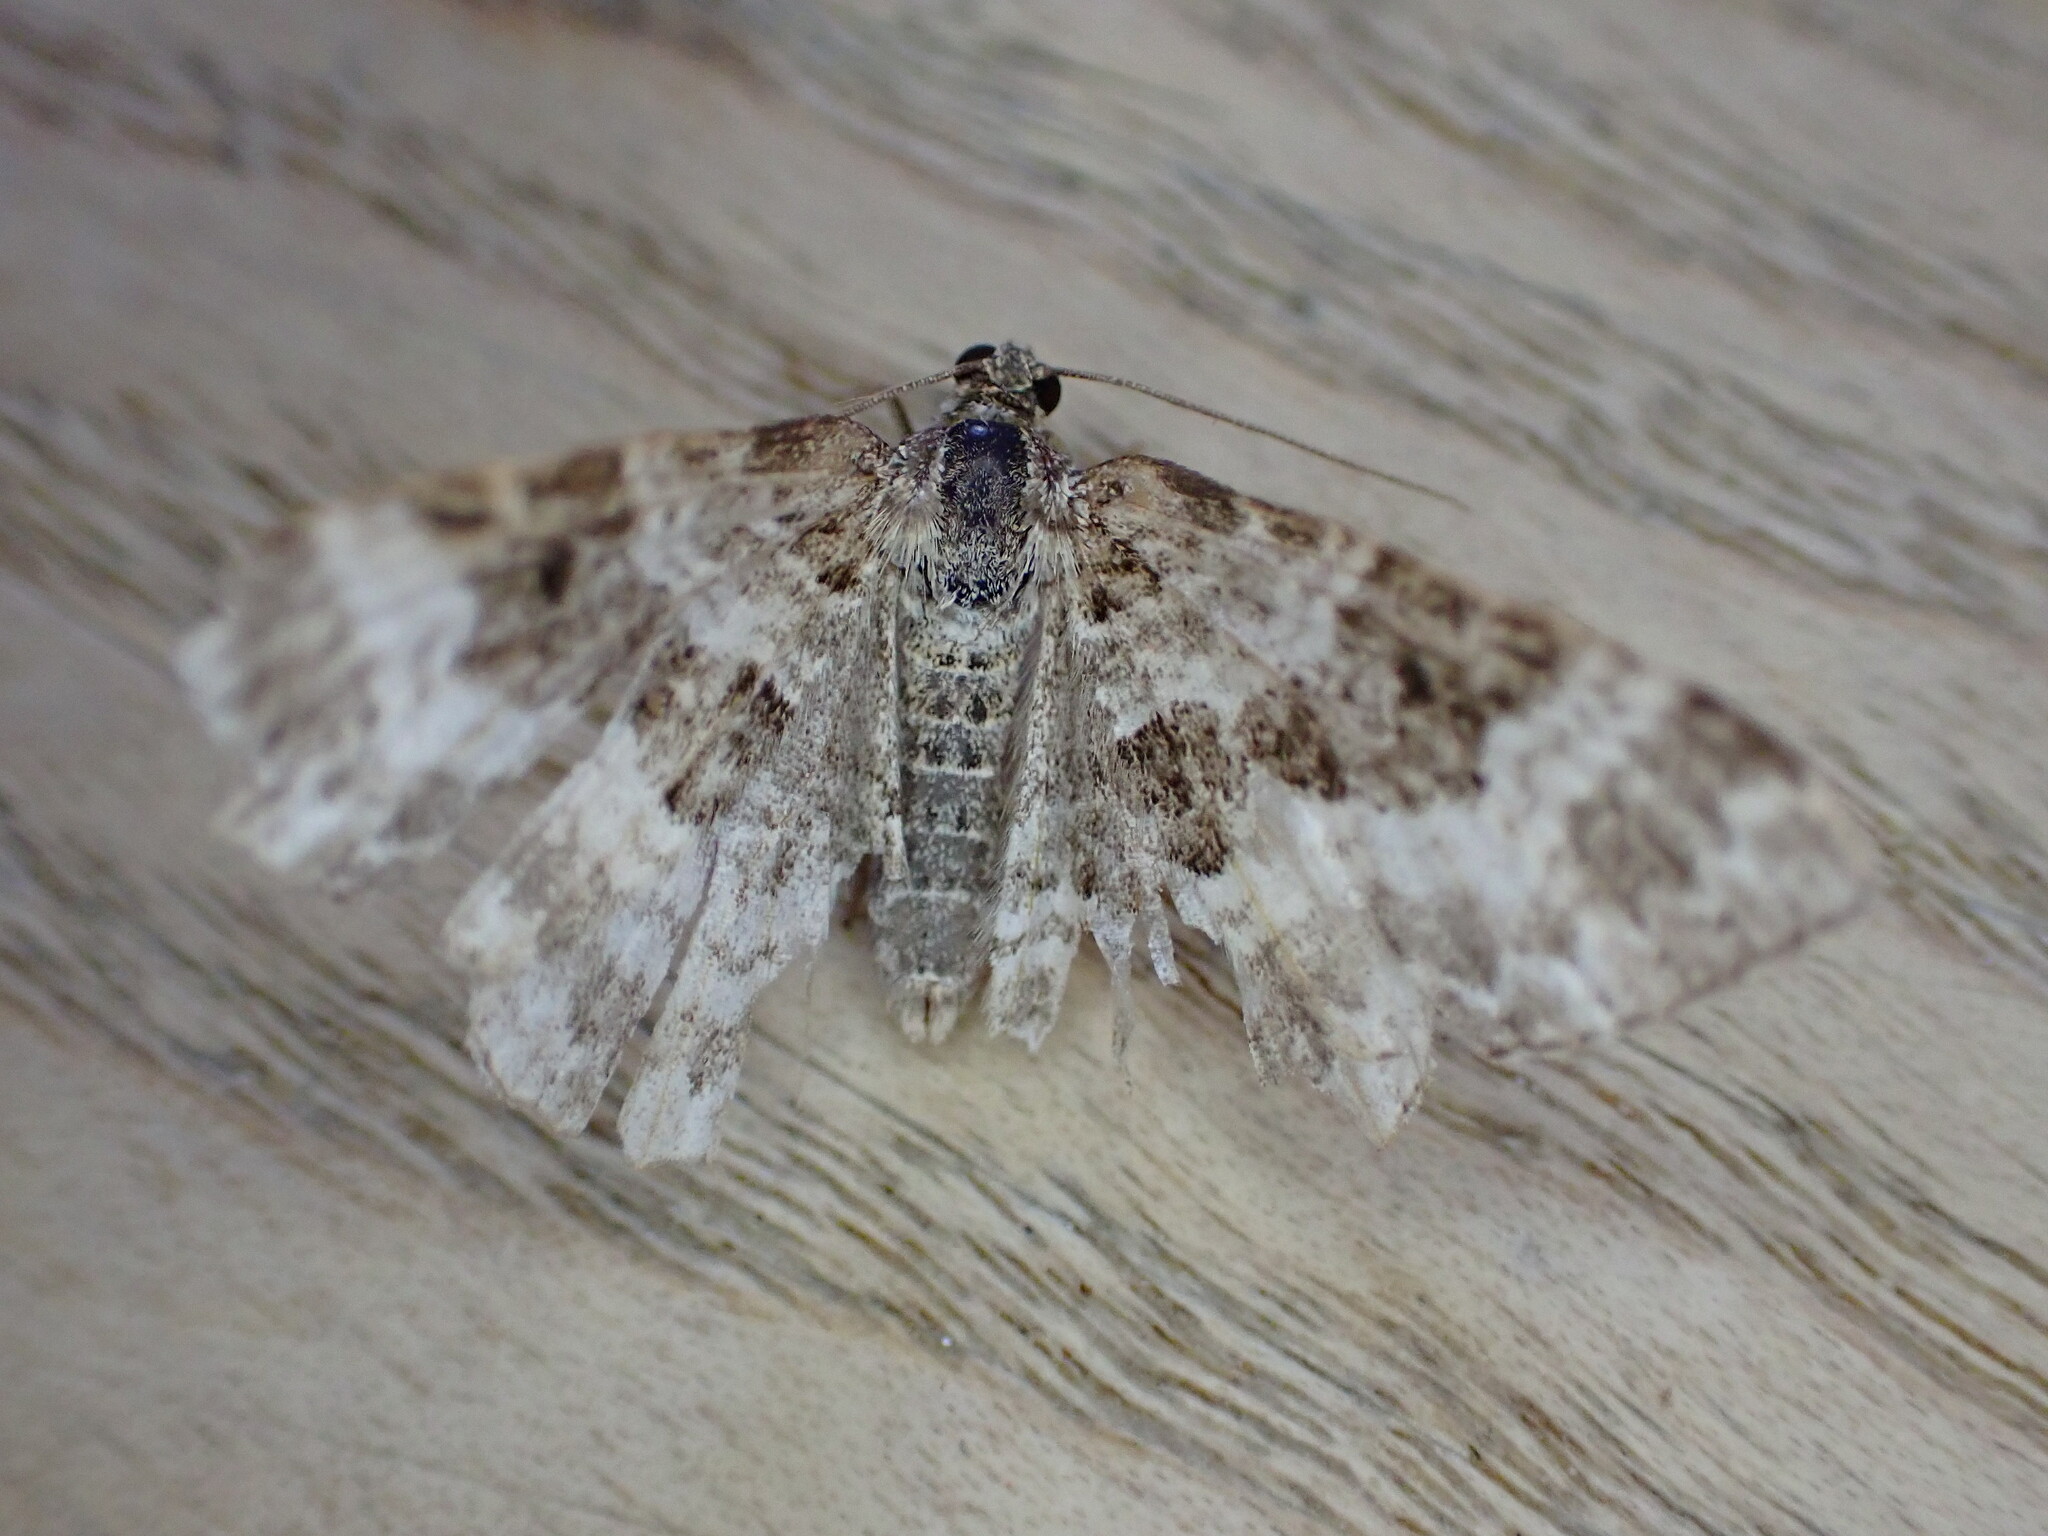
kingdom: Animalia
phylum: Arthropoda
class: Insecta
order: Lepidoptera
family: Geometridae
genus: Epirrhoe
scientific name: Epirrhoe alternata
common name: Common carpet
